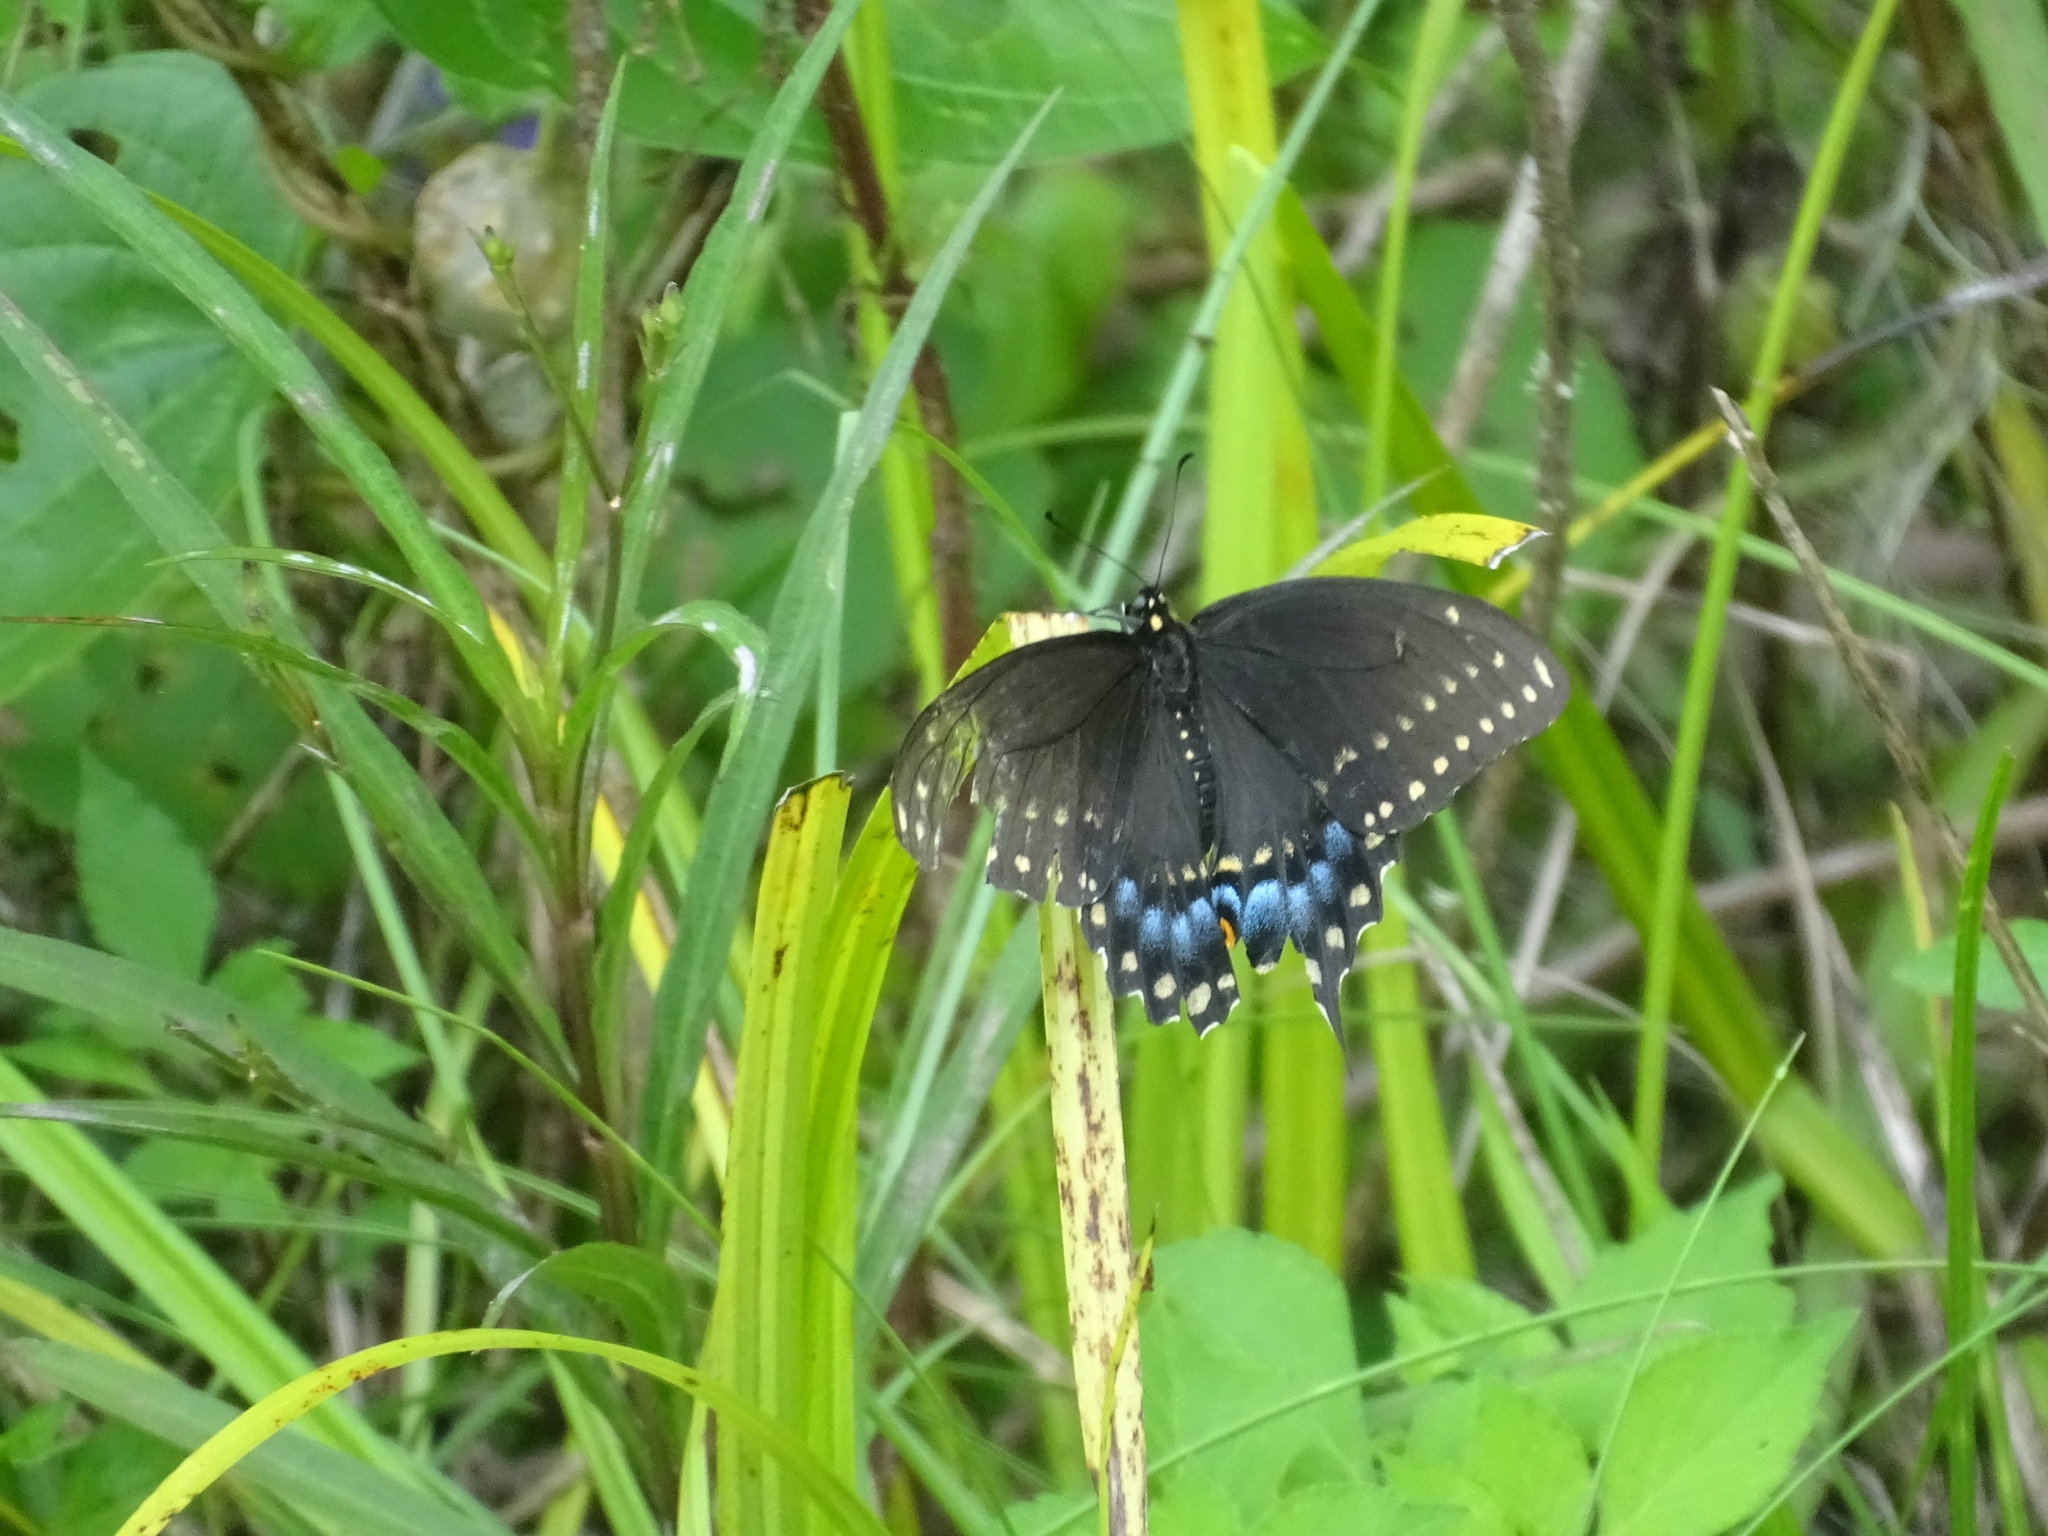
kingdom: Animalia
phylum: Arthropoda
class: Insecta
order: Lepidoptera
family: Papilionidae
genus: Papilio
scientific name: Papilio polyxenes
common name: Black swallowtail
